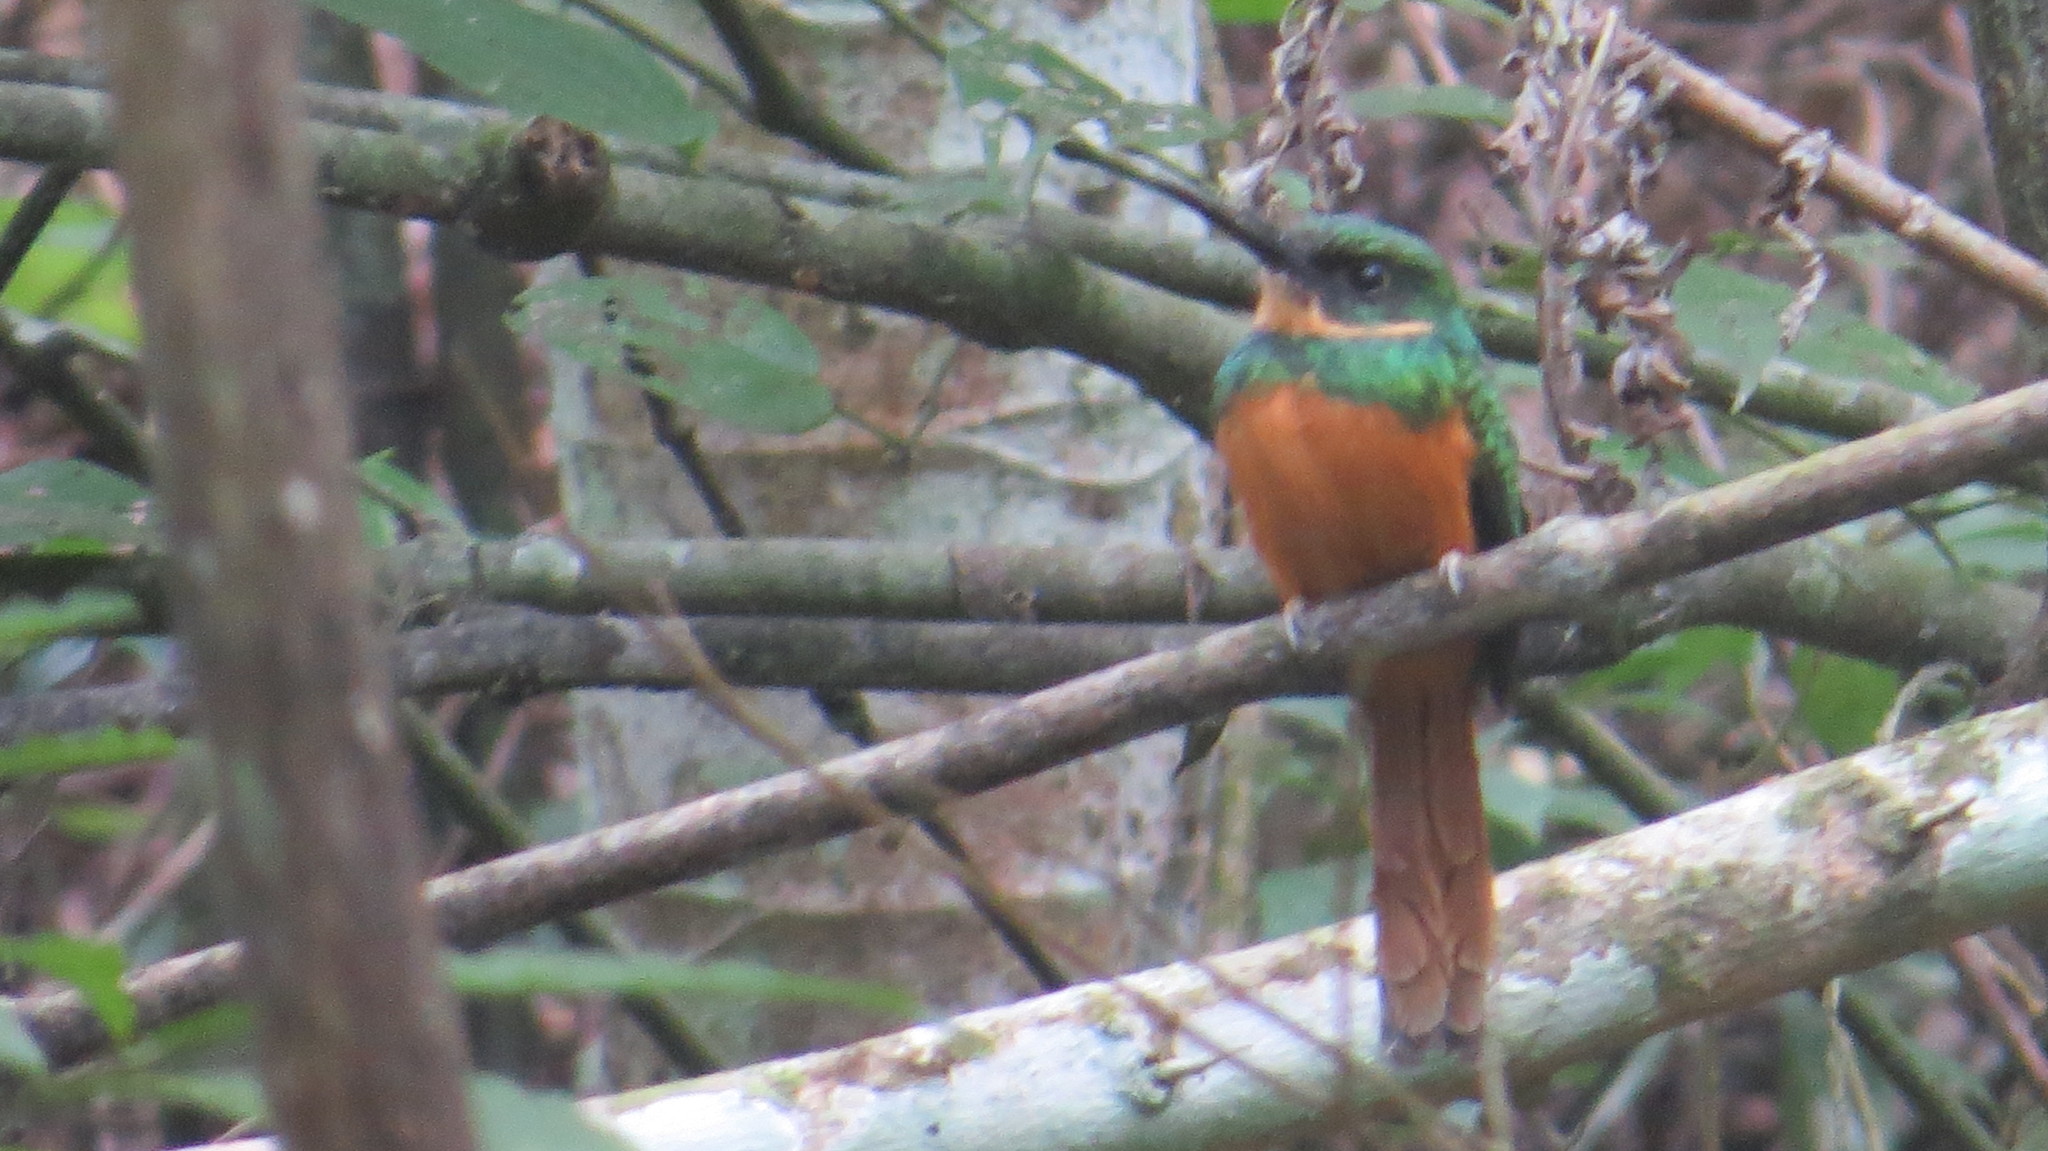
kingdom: Animalia
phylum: Chordata
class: Aves
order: Piciformes
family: Galbulidae
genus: Galbula
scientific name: Galbula ruficauda
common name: Rufous-tailed jacamar
